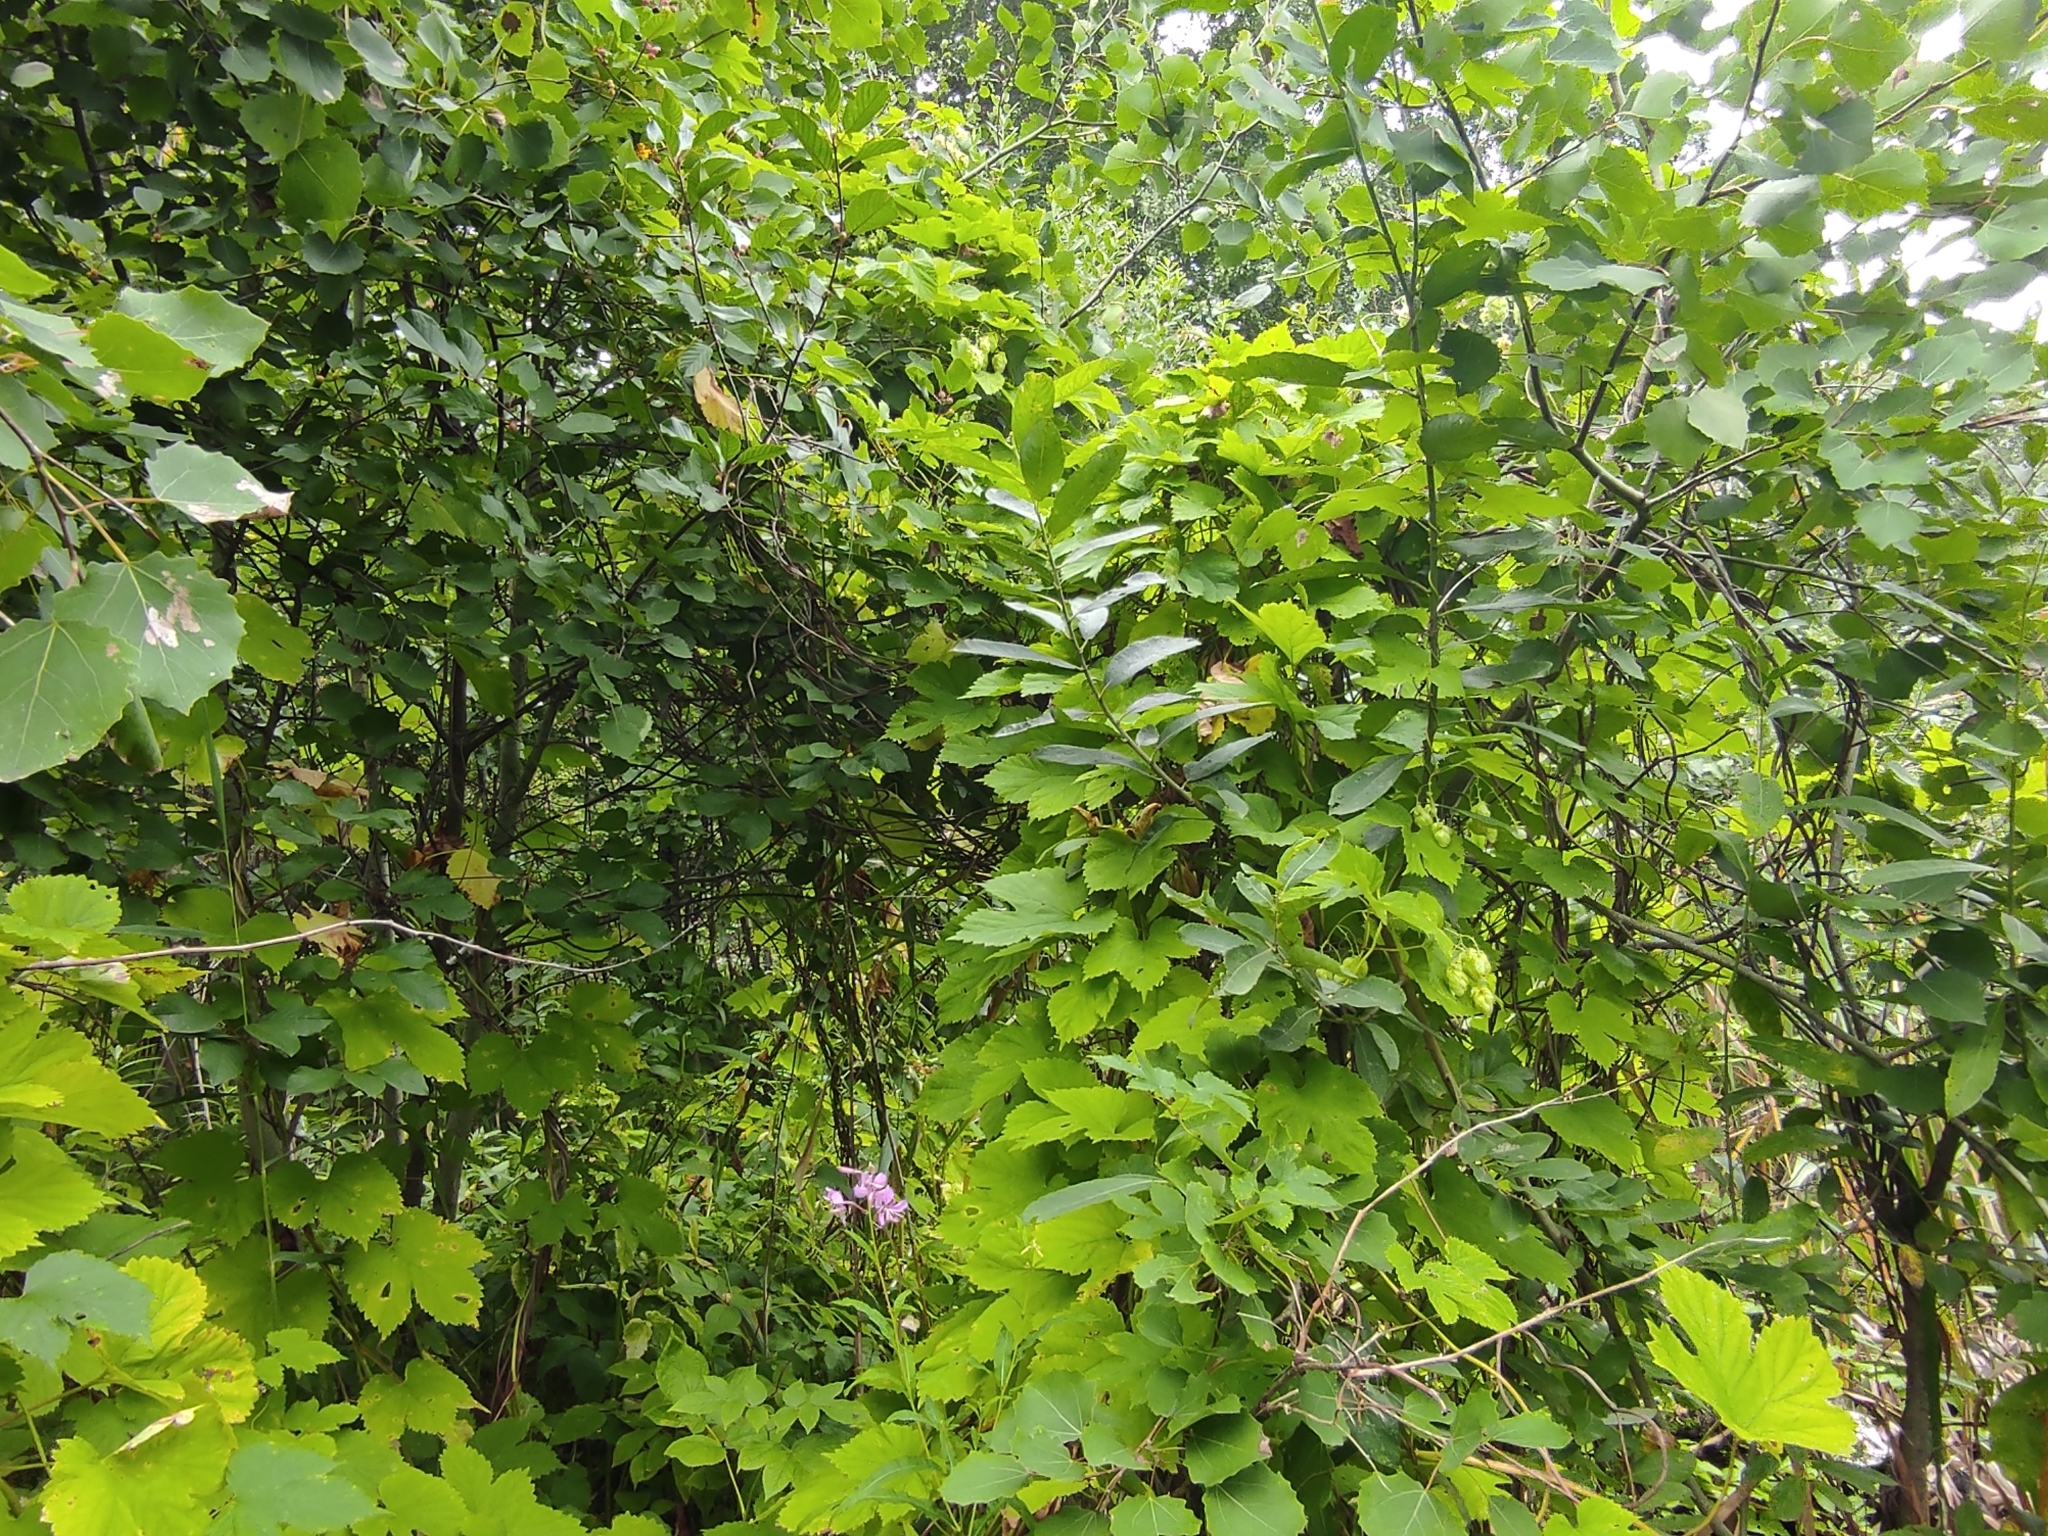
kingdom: Plantae
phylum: Tracheophyta
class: Magnoliopsida
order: Myrtales
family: Onagraceae
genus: Chamaenerion
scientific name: Chamaenerion angustifolium
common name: Fireweed
